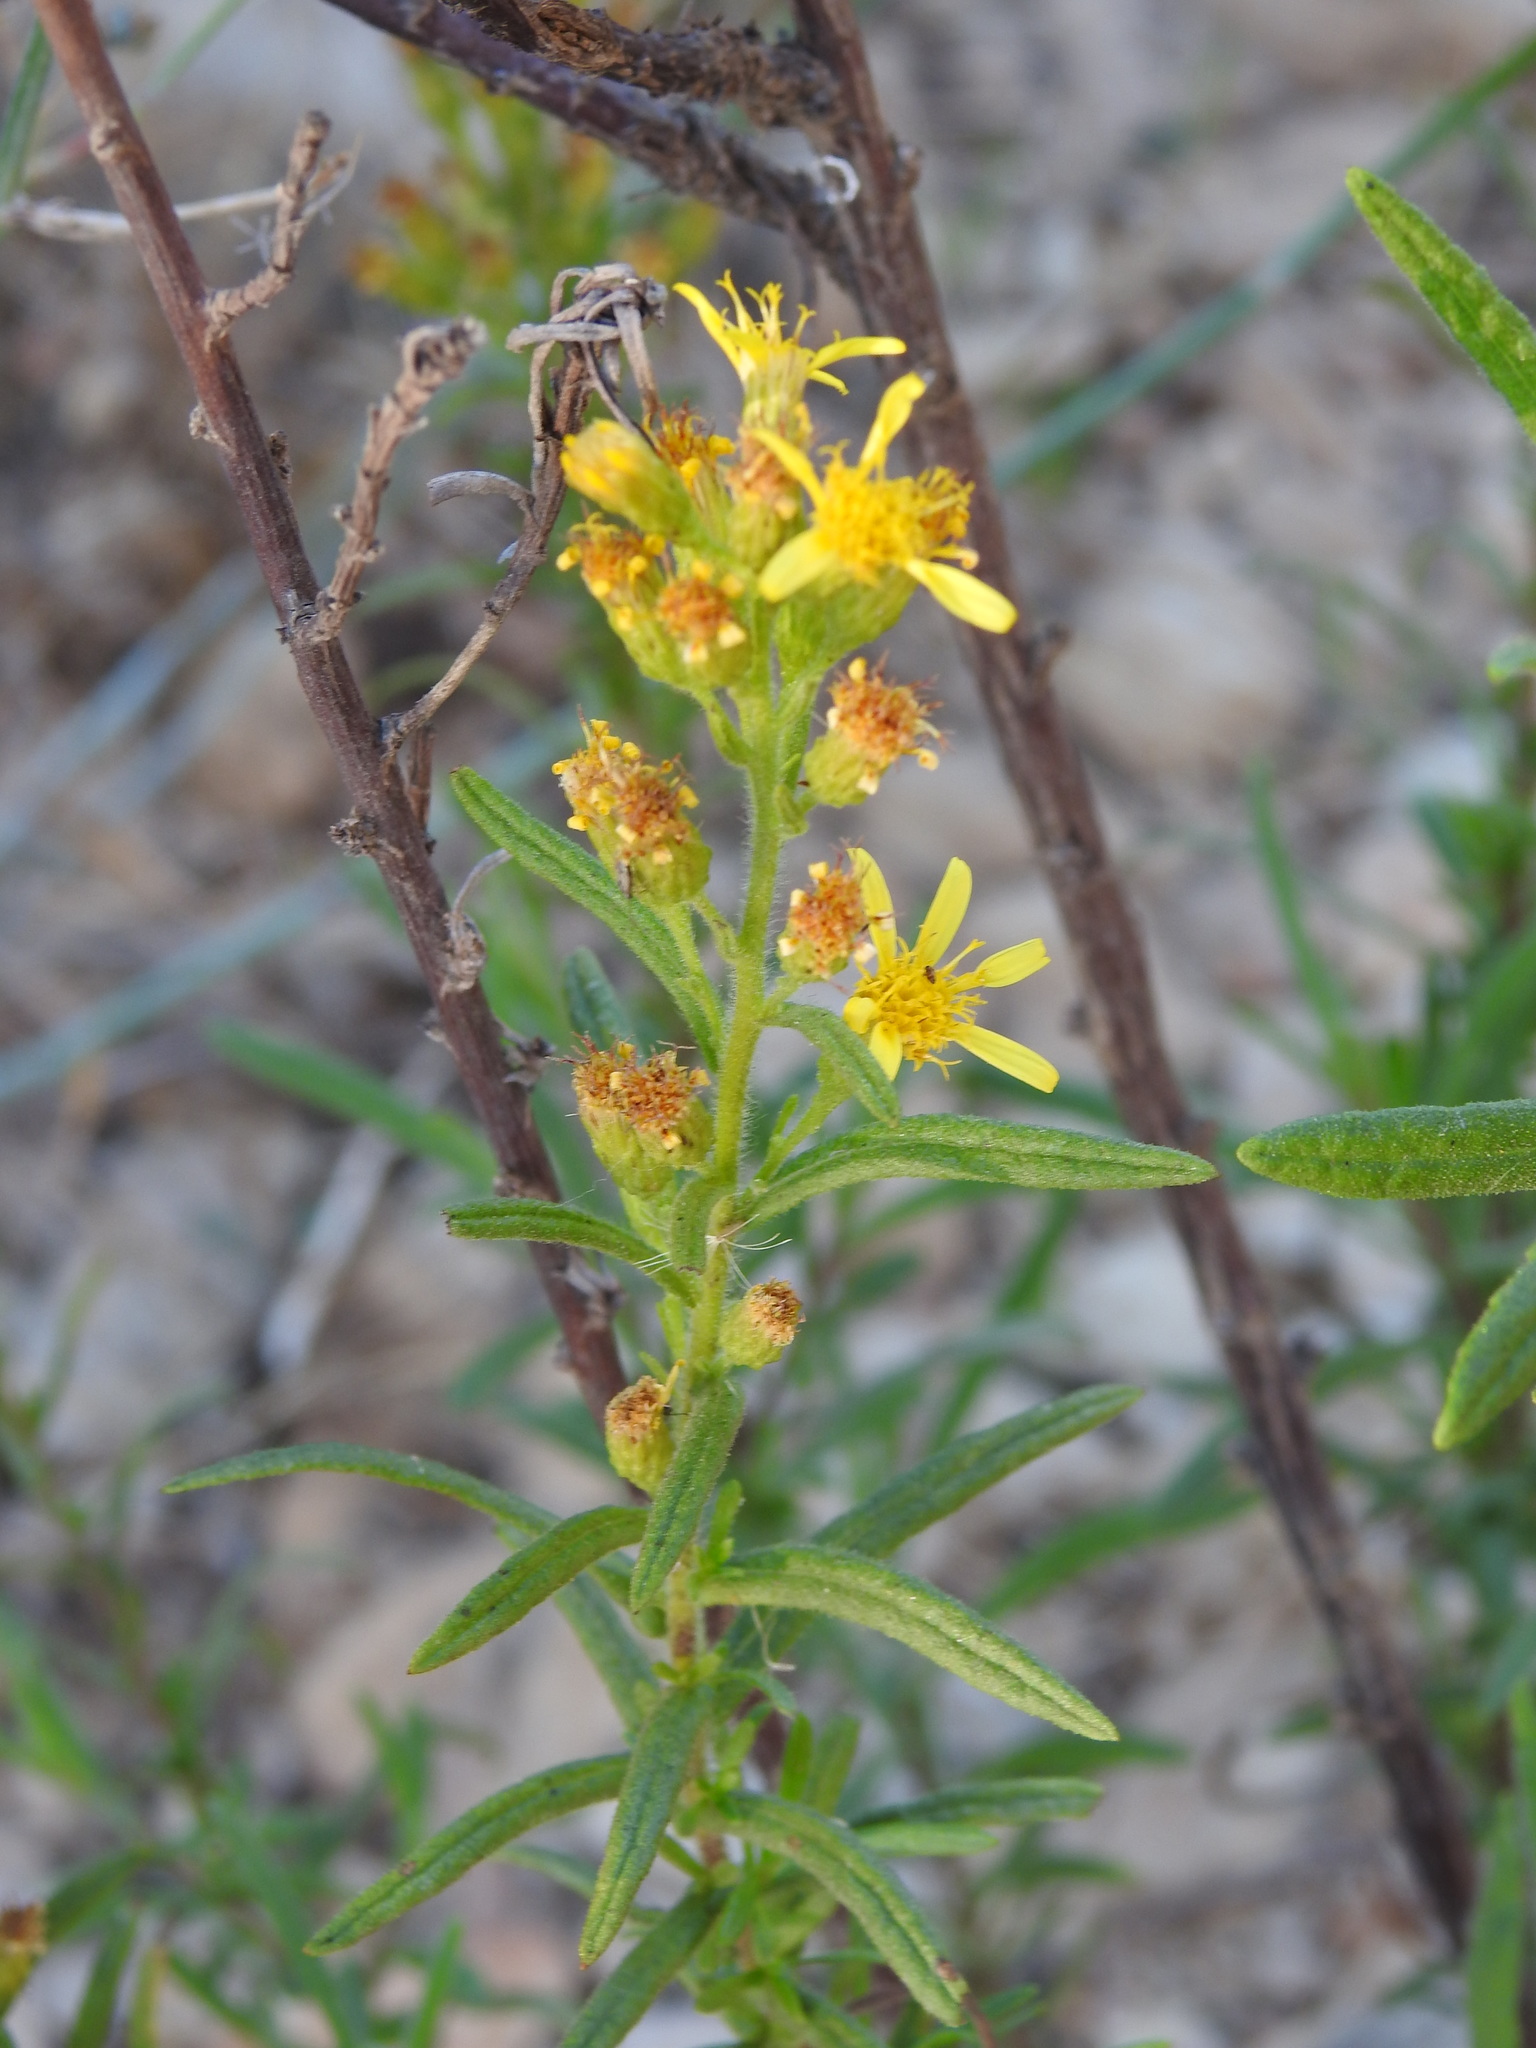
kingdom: Plantae
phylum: Tracheophyta
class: Magnoliopsida
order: Asterales
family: Asteraceae
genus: Dittrichia
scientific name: Dittrichia viscosa
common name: Woody fleabane
